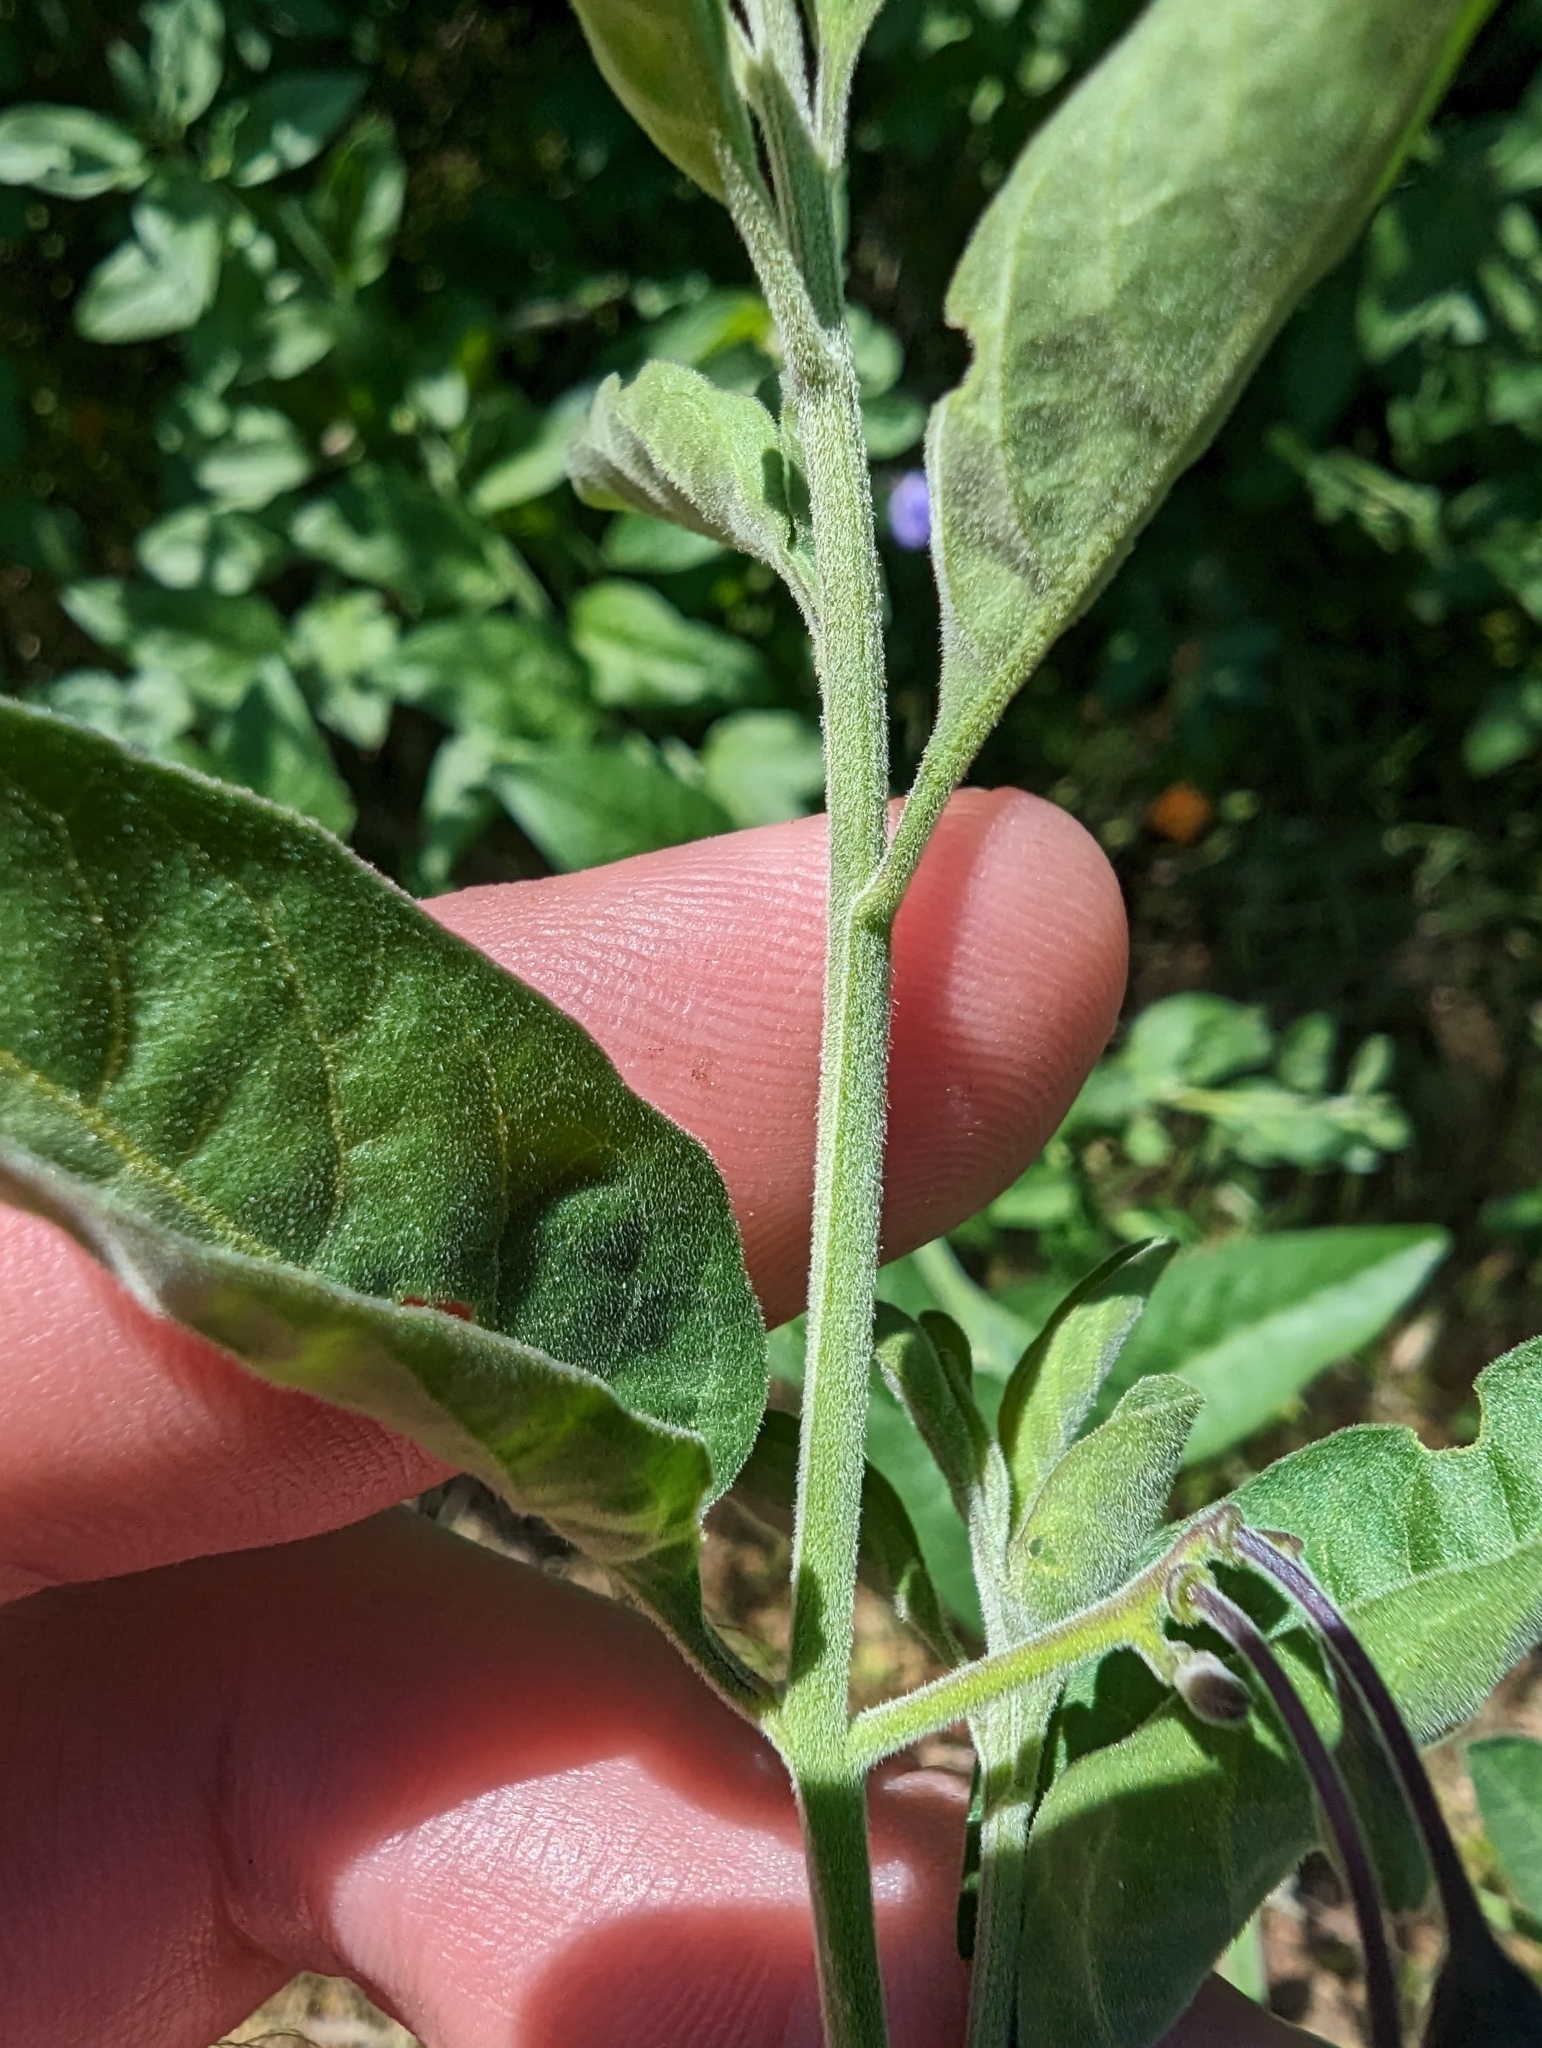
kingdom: Plantae
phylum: Tracheophyta
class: Magnoliopsida
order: Solanales
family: Solanaceae
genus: Solanum
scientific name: Solanum umbelliferum
